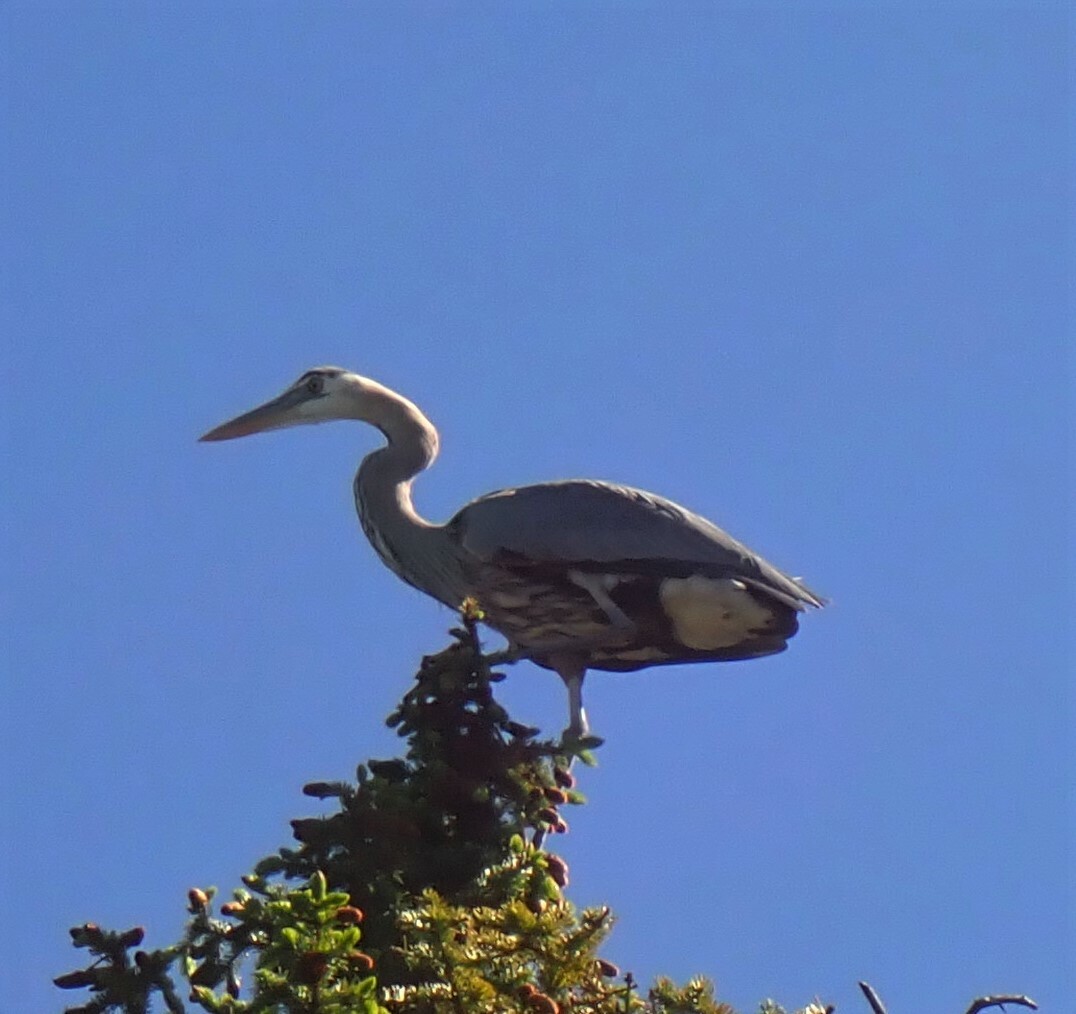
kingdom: Animalia
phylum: Chordata
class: Aves
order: Pelecaniformes
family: Ardeidae
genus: Ardea
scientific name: Ardea herodias
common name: Great blue heron
